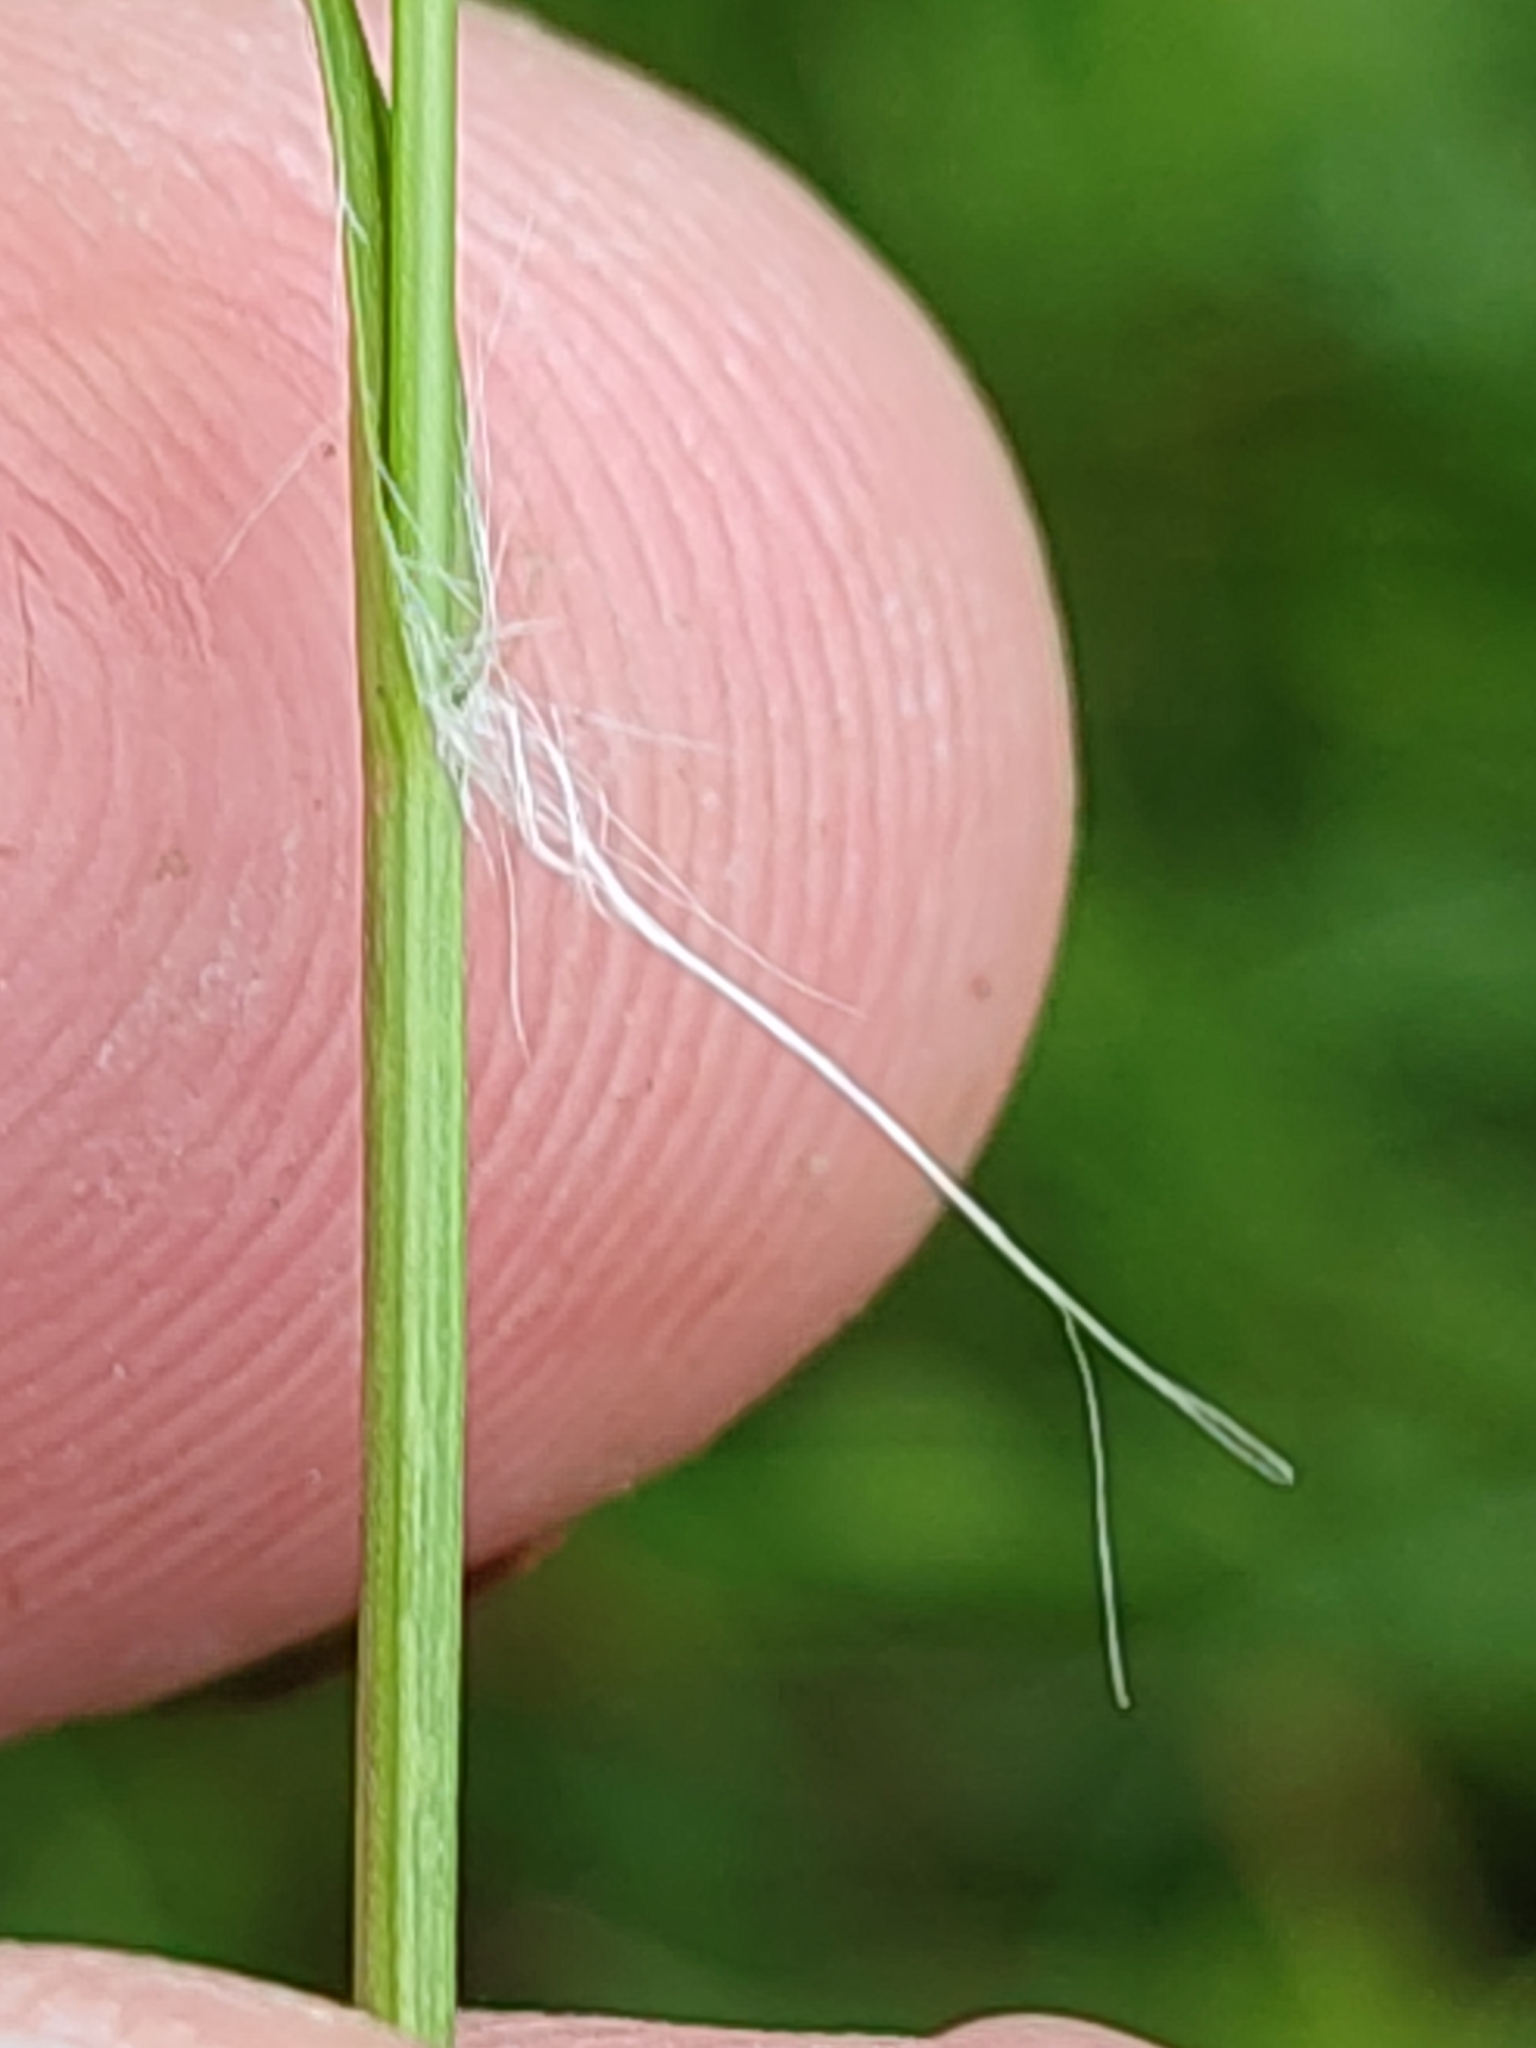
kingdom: Plantae
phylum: Tracheophyta
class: Liliopsida
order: Poales
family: Juncaceae
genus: Luzula
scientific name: Luzula campestris
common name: Field wood-rush
